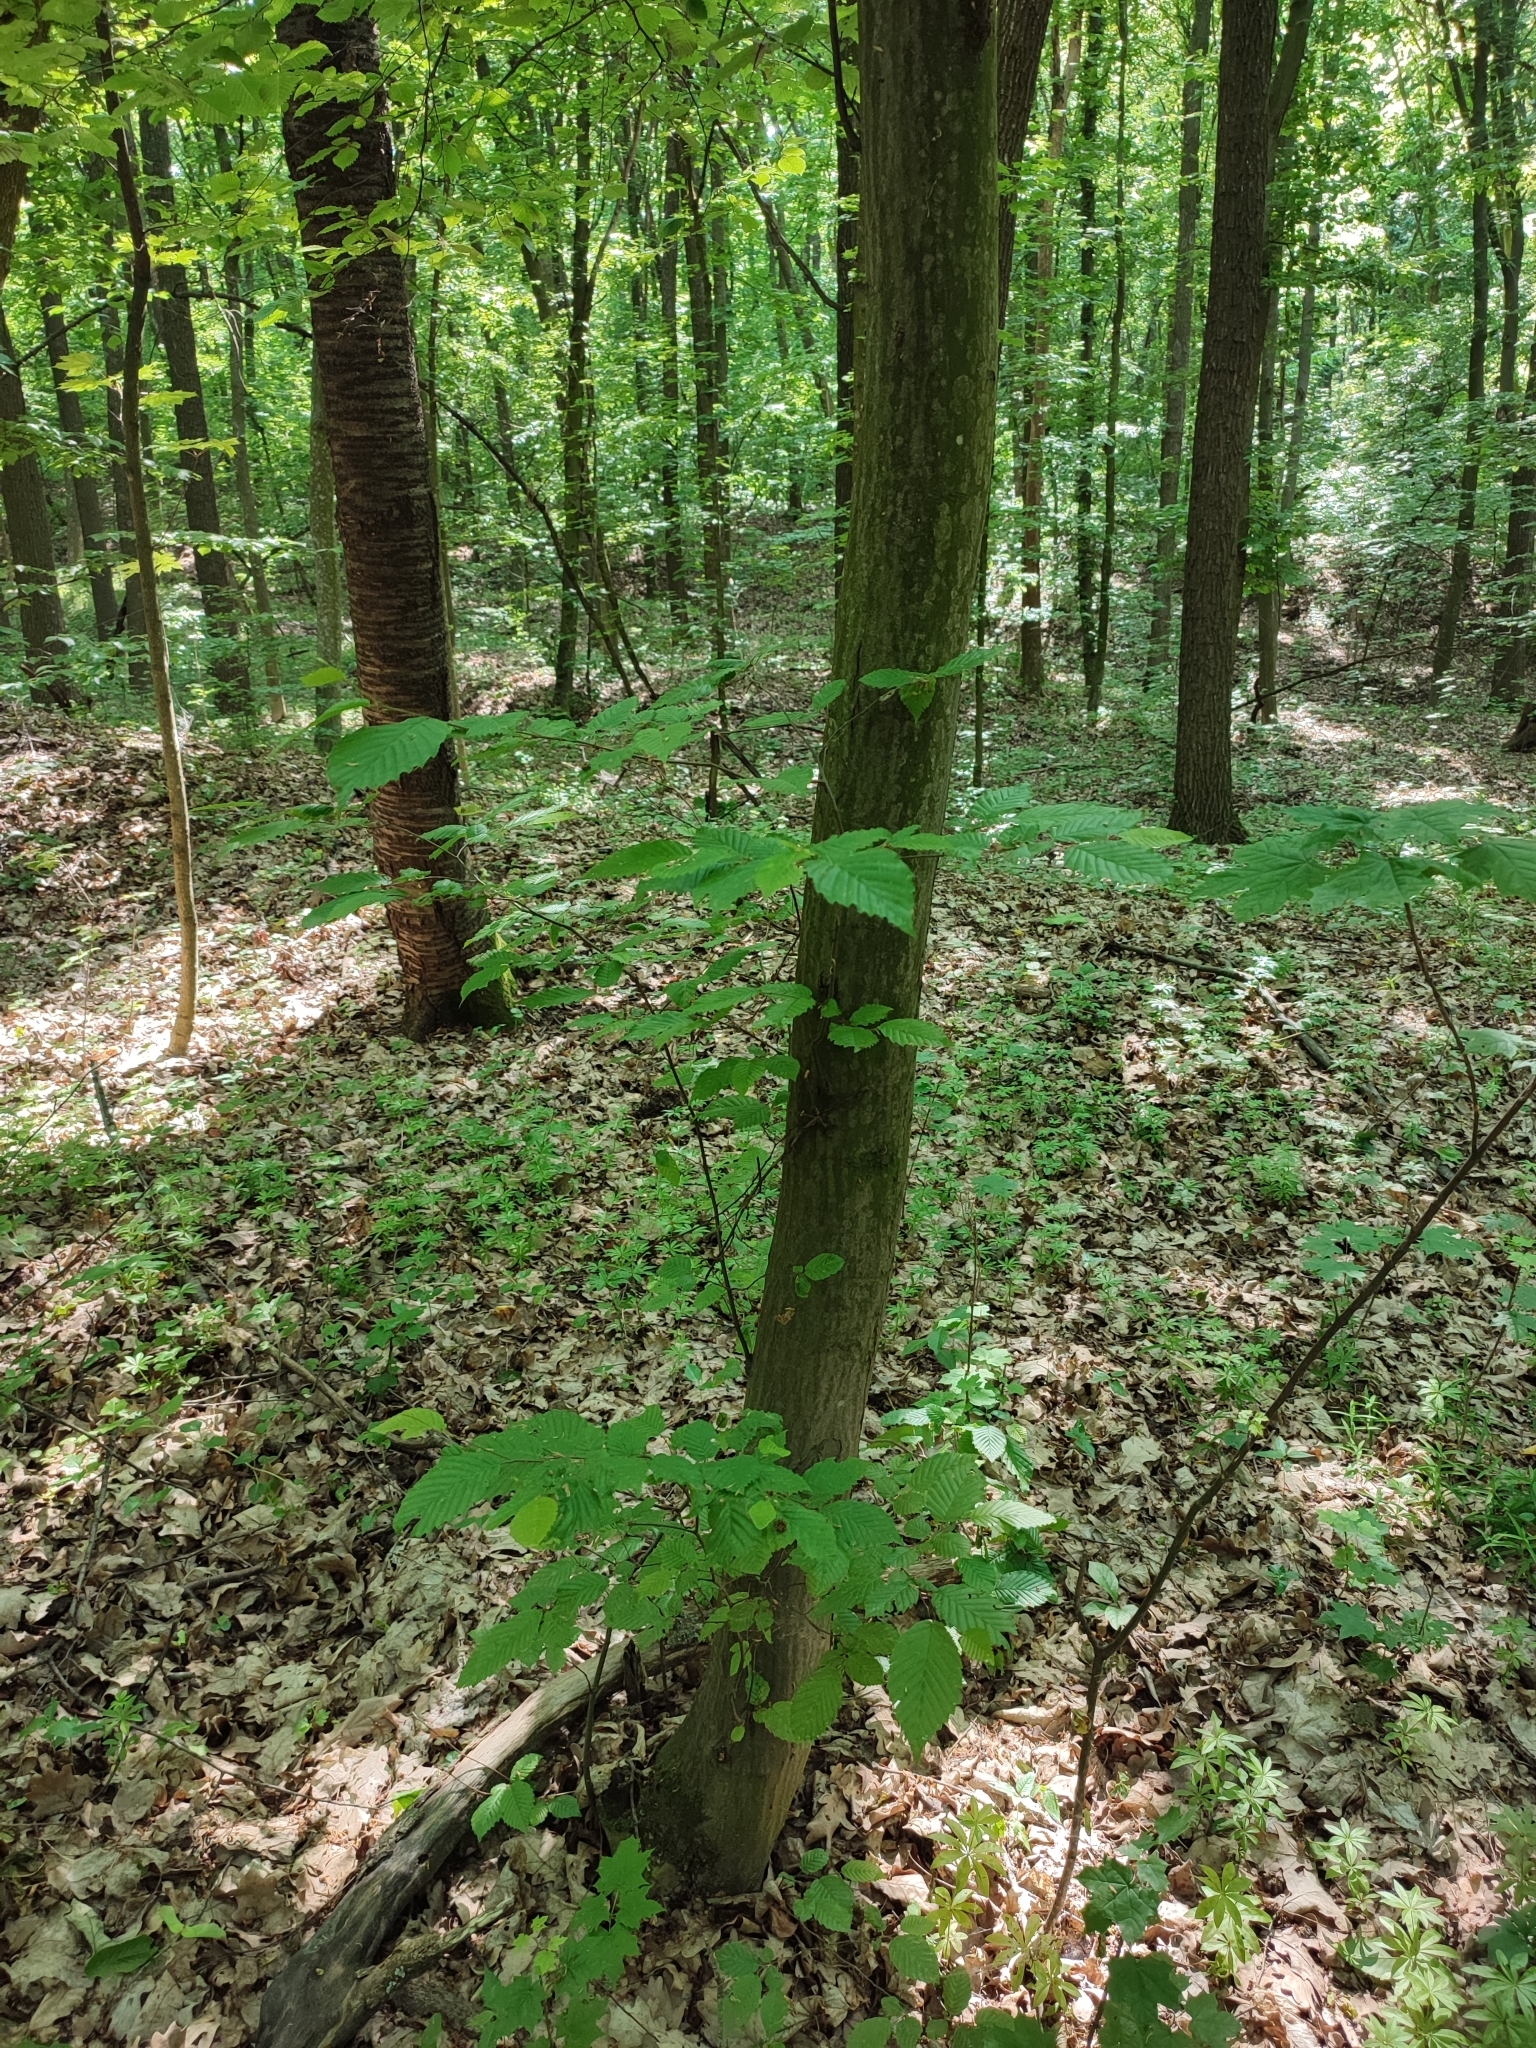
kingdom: Plantae
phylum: Tracheophyta
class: Magnoliopsida
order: Fagales
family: Betulaceae
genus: Carpinus
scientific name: Carpinus betulus
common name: Hornbeam
